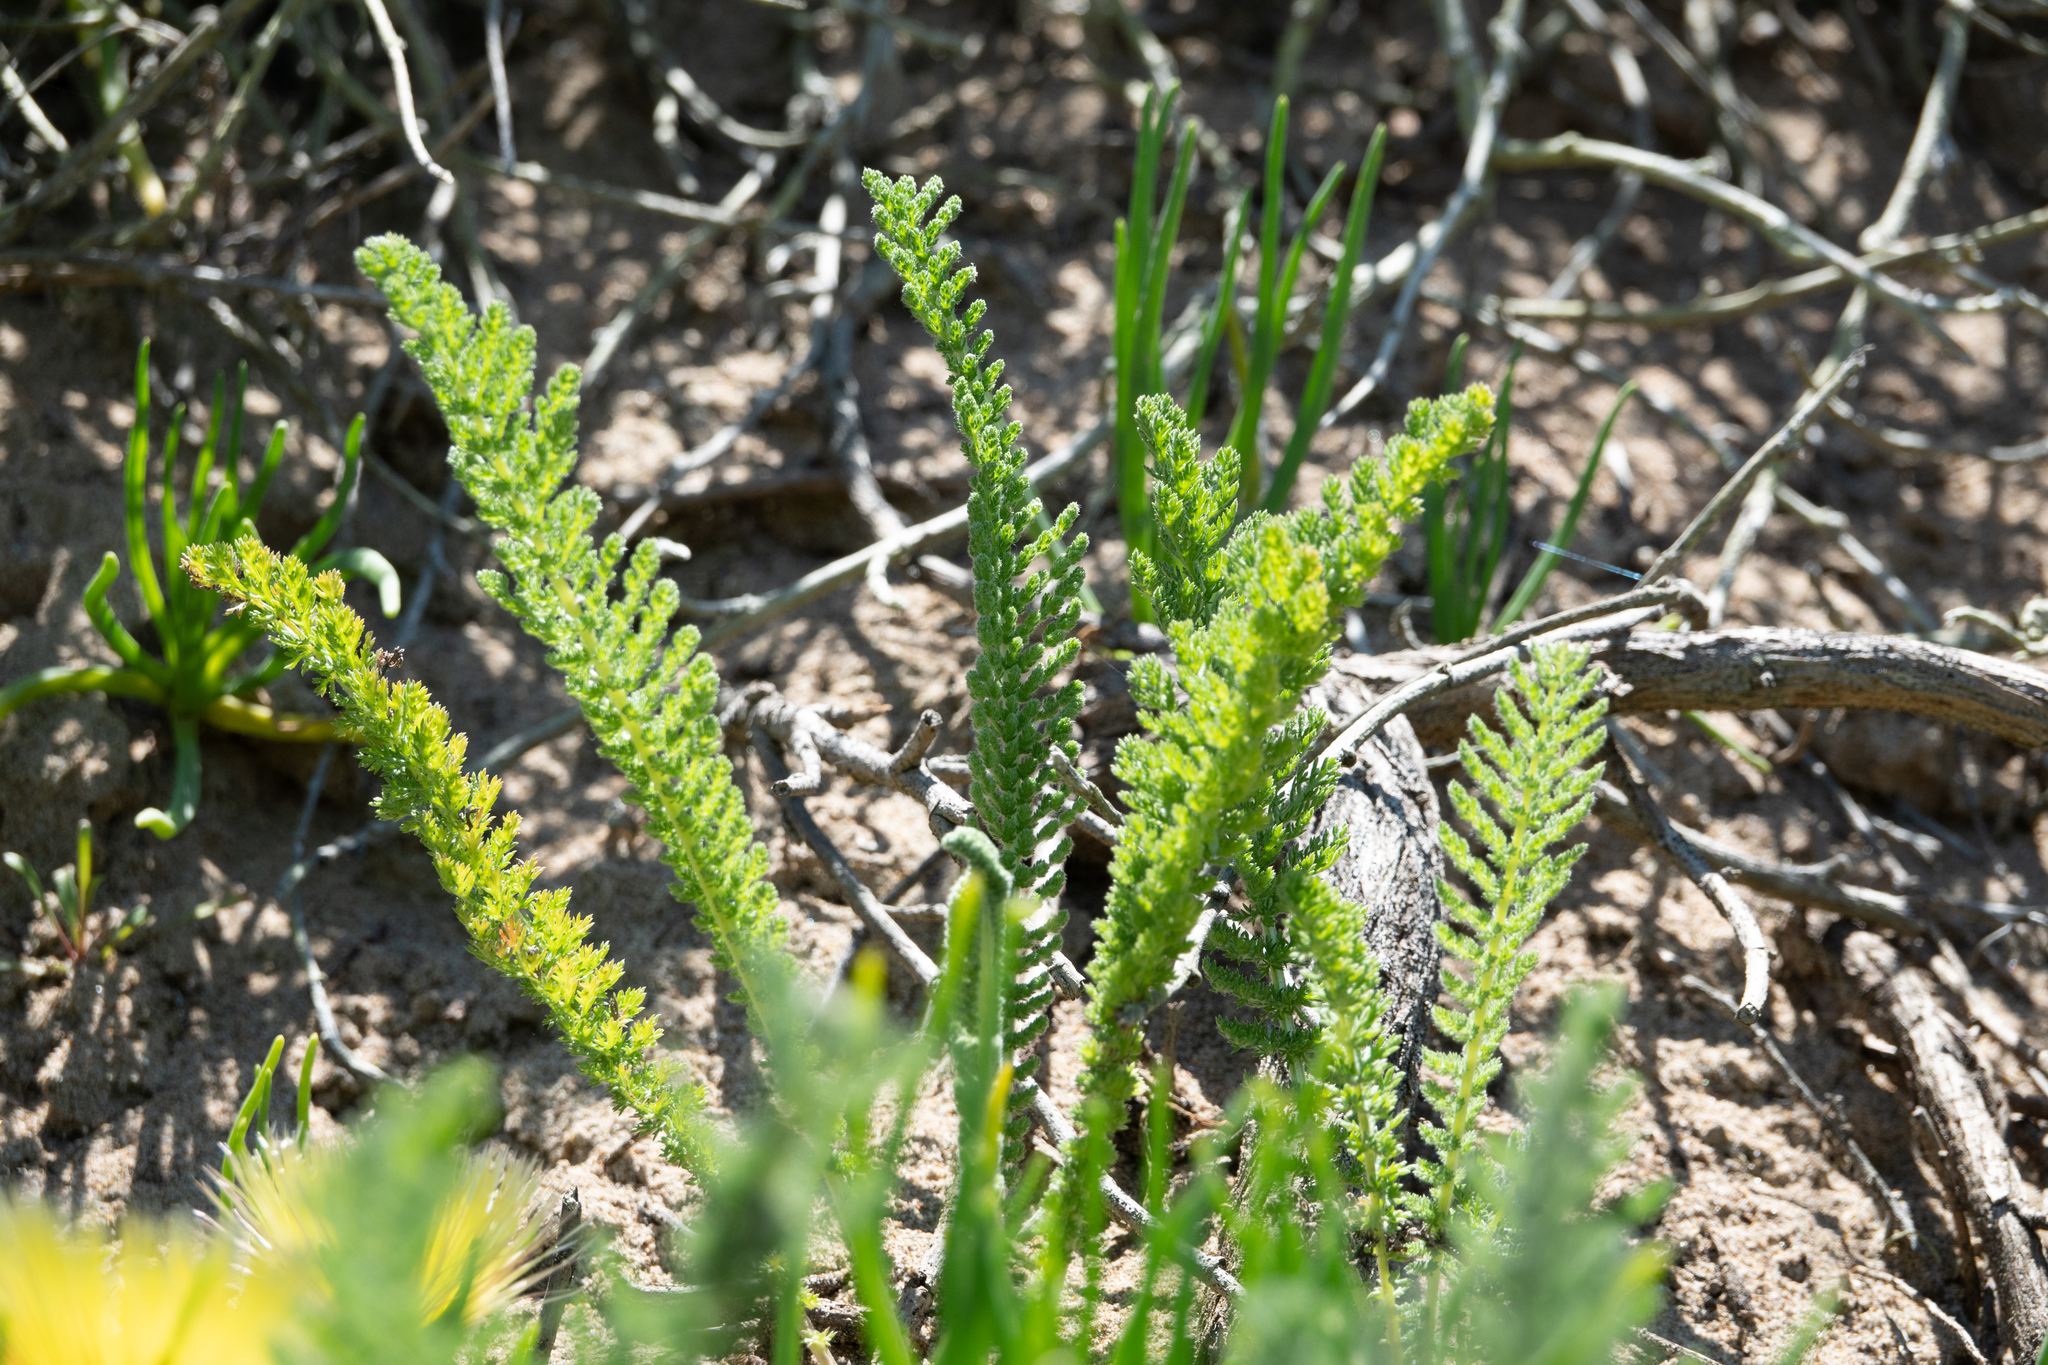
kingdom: Plantae
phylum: Tracheophyta
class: Magnoliopsida
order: Asterales
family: Asteraceae
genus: Achillea
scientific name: Achillea millefolium
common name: Yarrow
